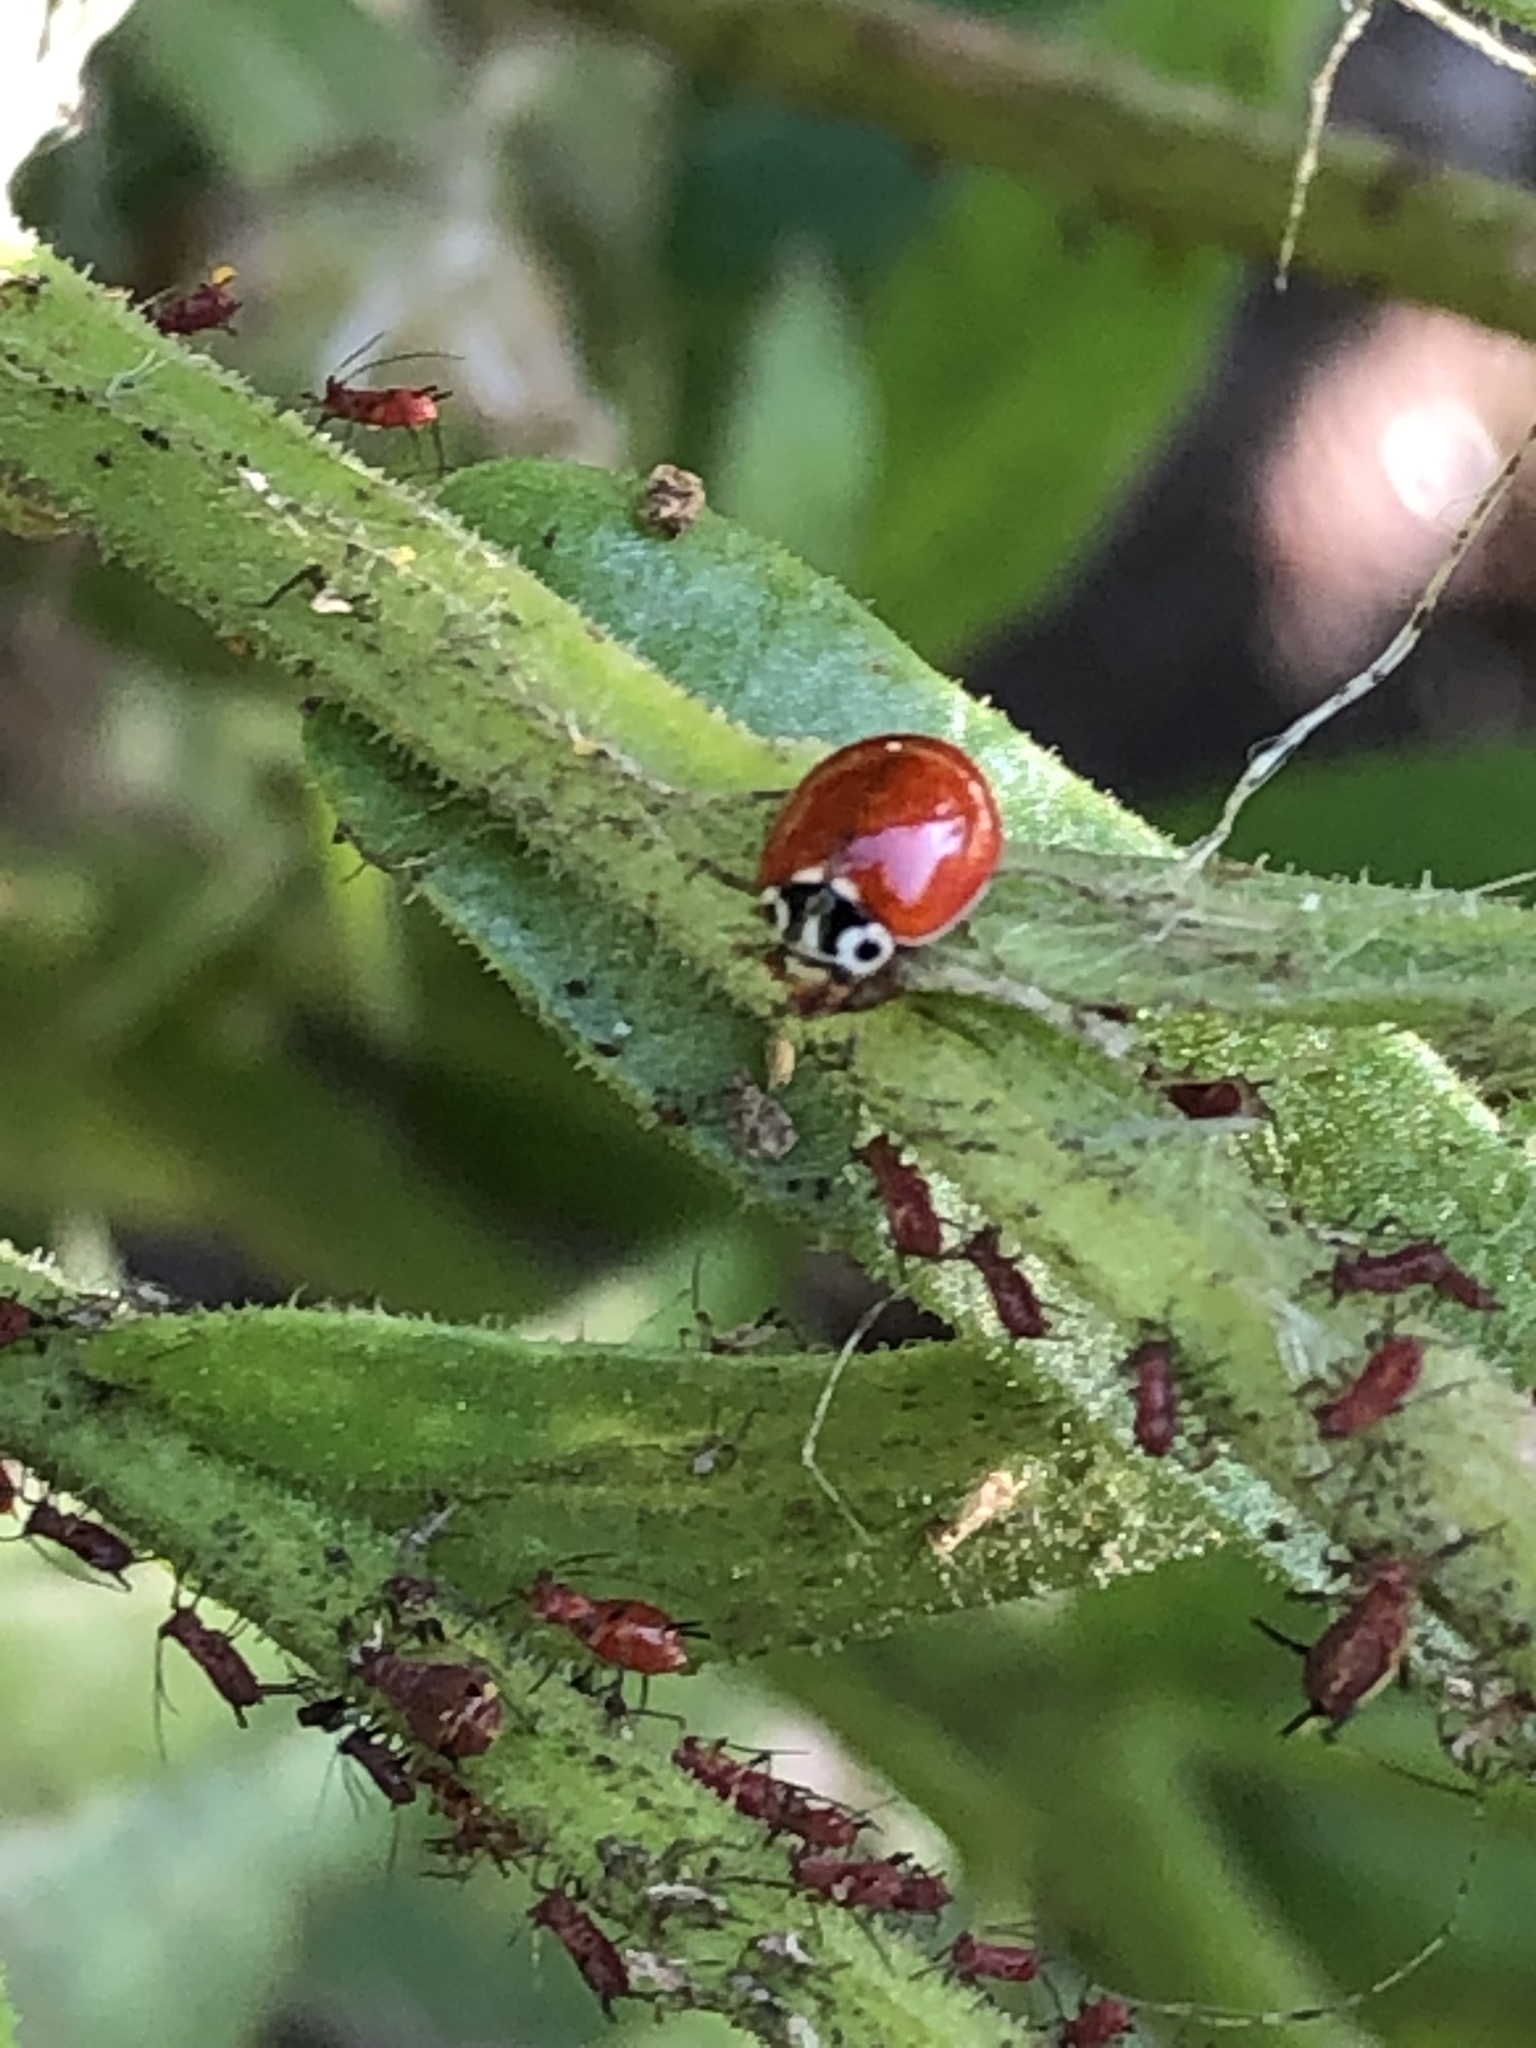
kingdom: Animalia
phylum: Arthropoda
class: Insecta
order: Coleoptera
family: Coccinellidae
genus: Cycloneda
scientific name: Cycloneda polita
